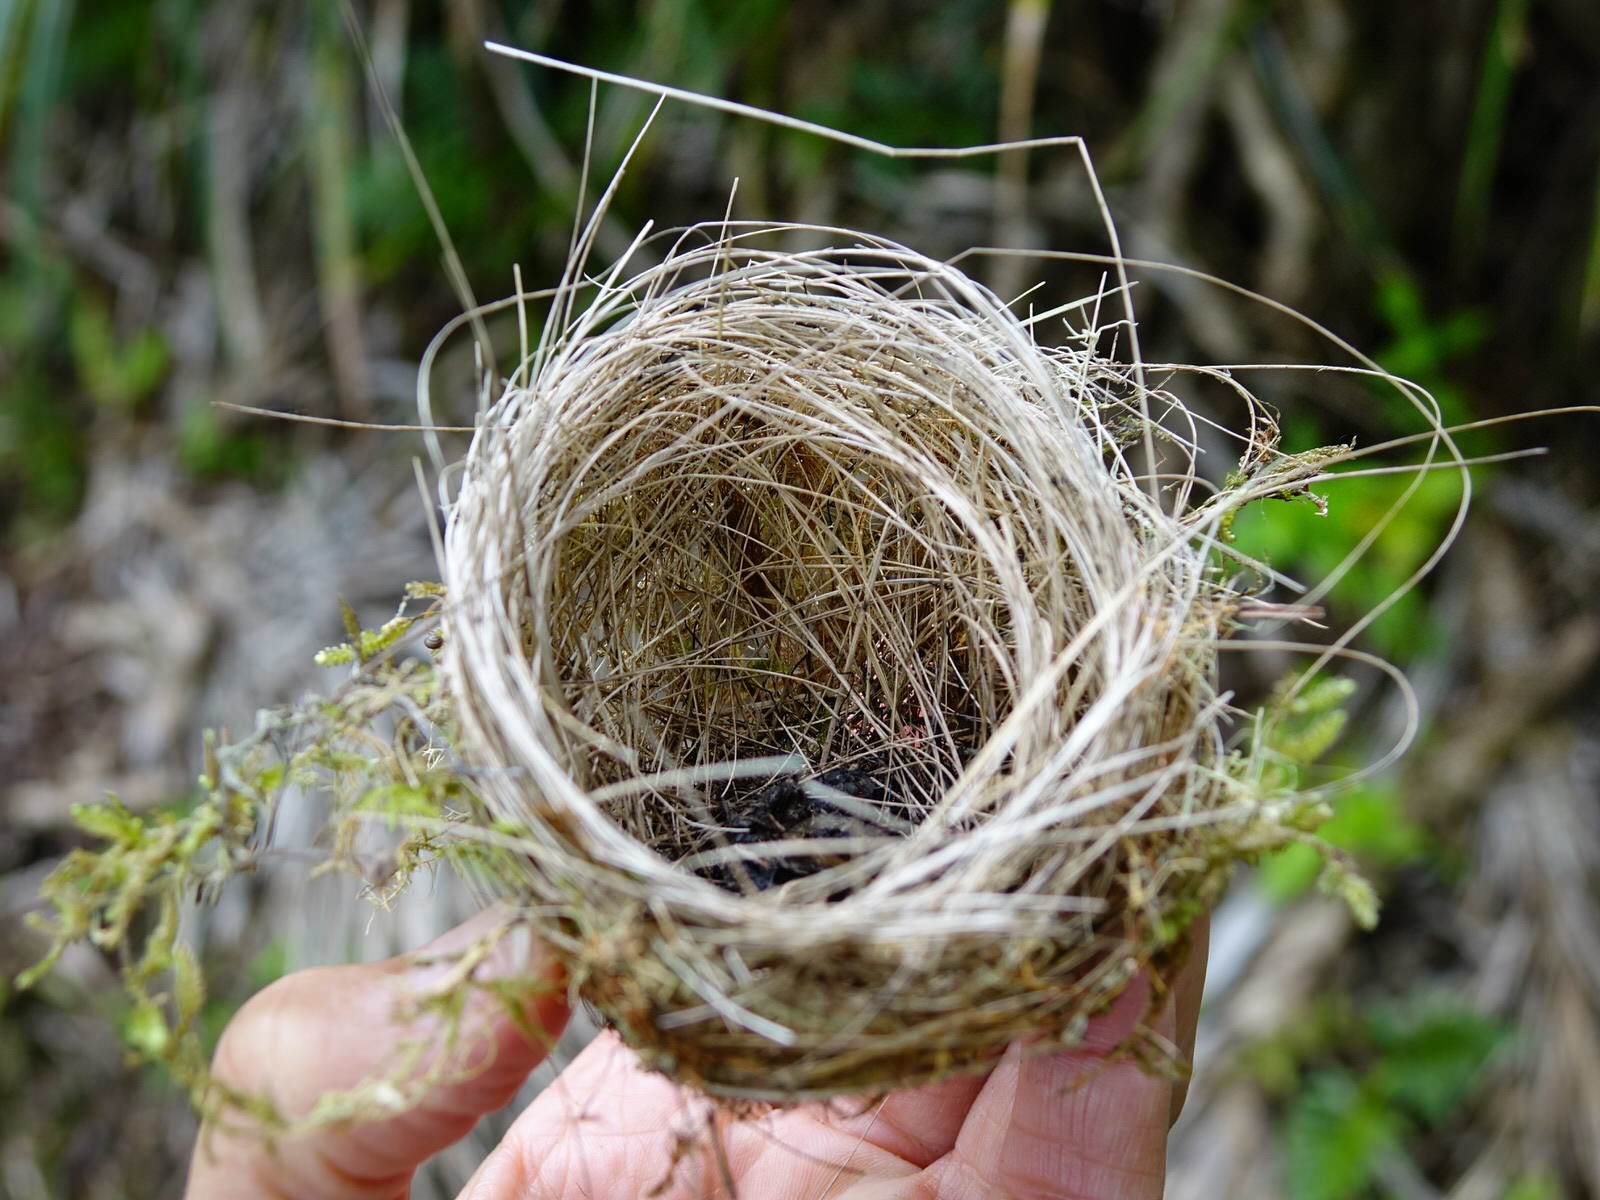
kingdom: Animalia
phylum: Chordata
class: Aves
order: Passeriformes
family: Zosteropidae
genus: Zosterops
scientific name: Zosterops lateralis
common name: Silvereye
